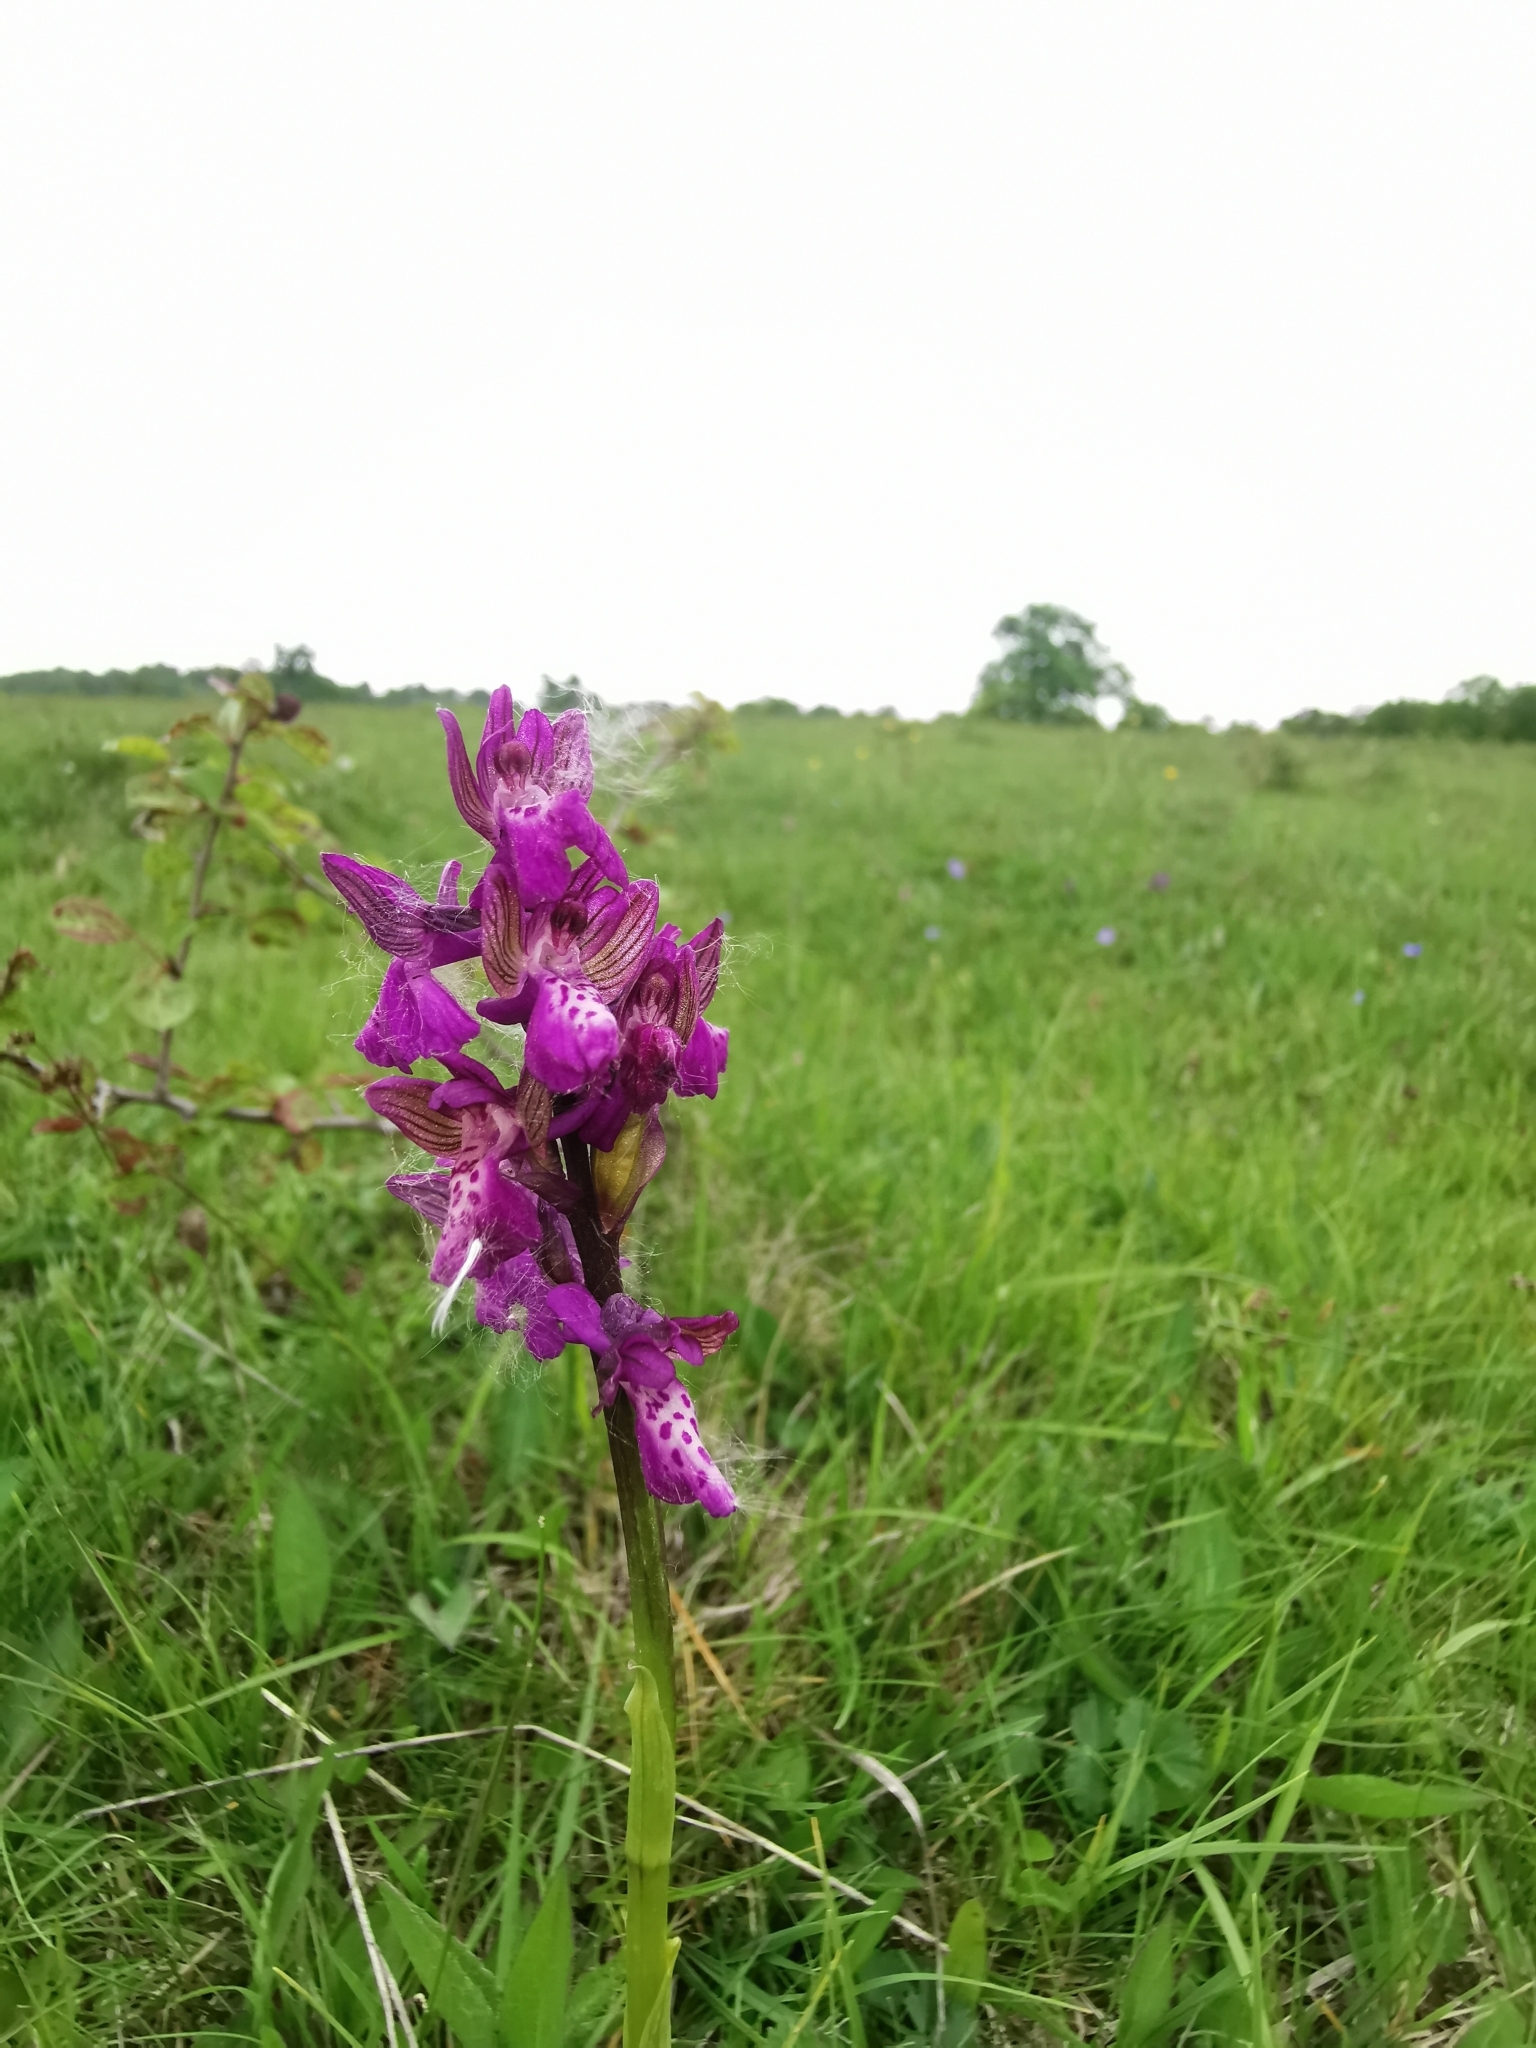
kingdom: Plantae
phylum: Tracheophyta
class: Liliopsida
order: Asparagales
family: Orchidaceae
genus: Anacamptis
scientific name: Anacamptis morio
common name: Green-winged orchid
